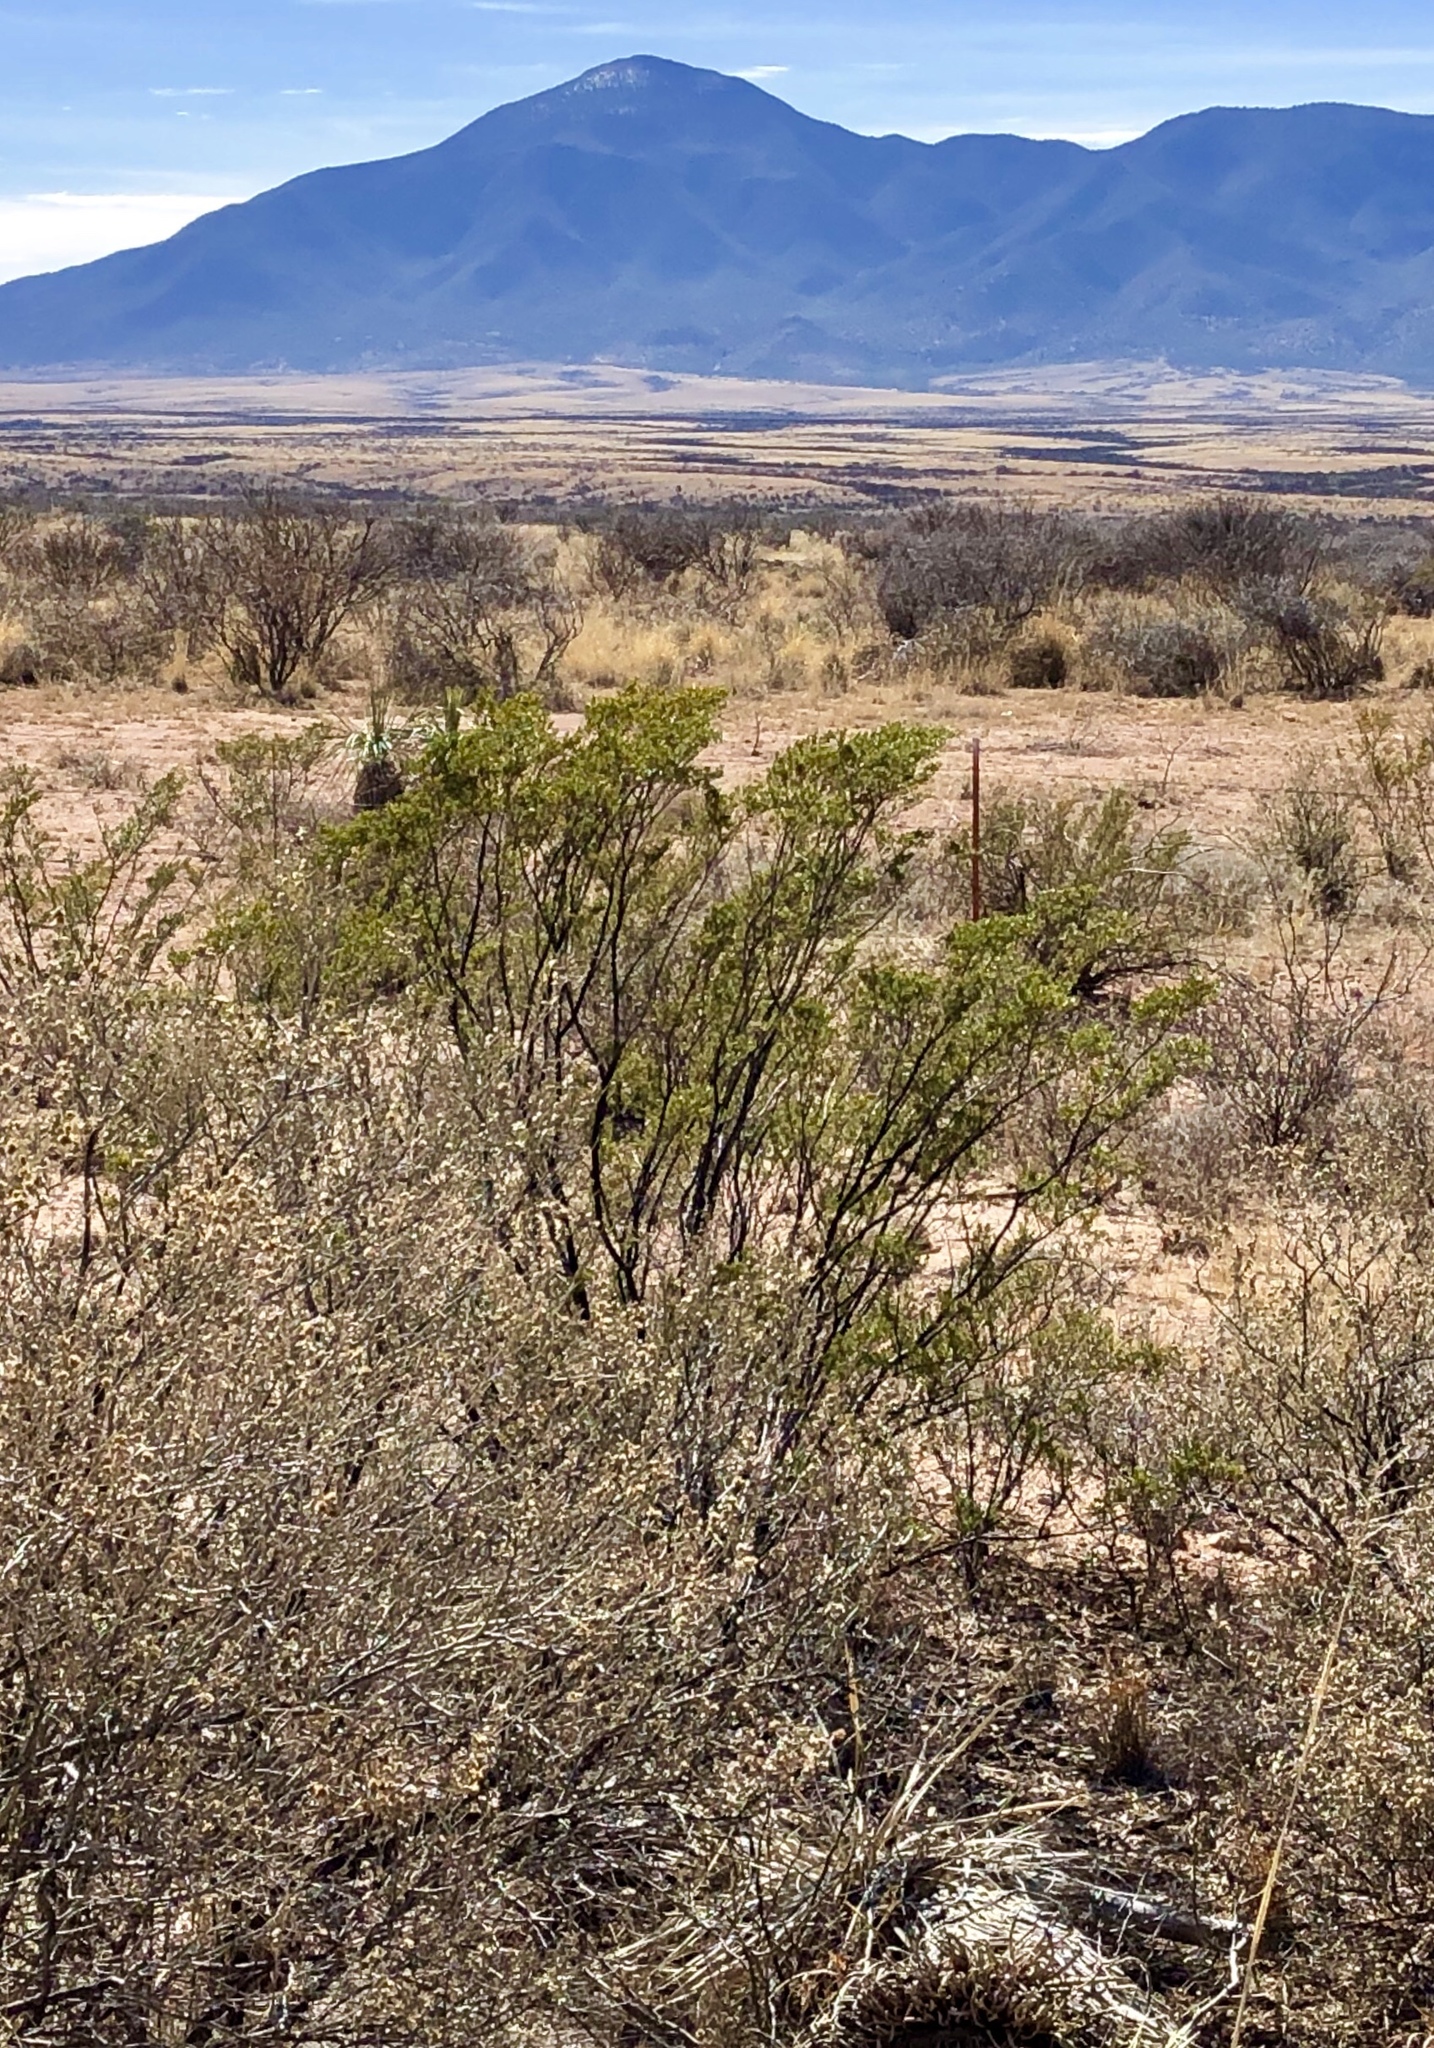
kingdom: Plantae
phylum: Tracheophyta
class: Magnoliopsida
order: Zygophyllales
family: Zygophyllaceae
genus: Larrea
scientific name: Larrea tridentata
